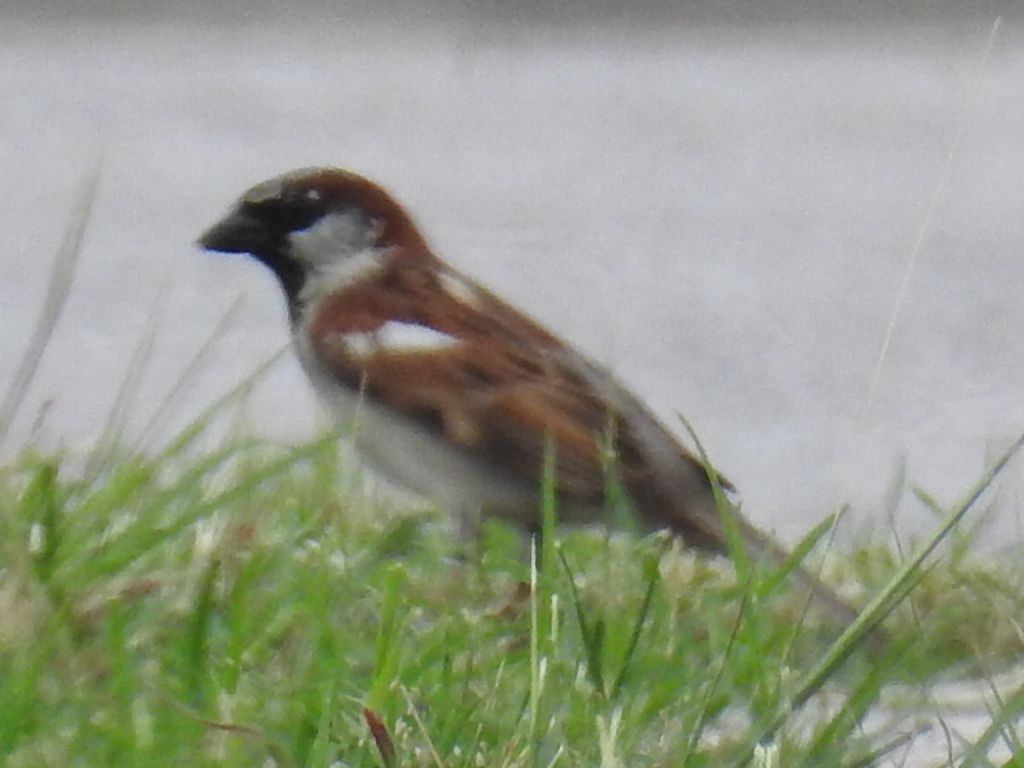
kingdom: Animalia
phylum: Chordata
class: Aves
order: Passeriformes
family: Passeridae
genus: Passer
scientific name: Passer domesticus
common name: House sparrow
